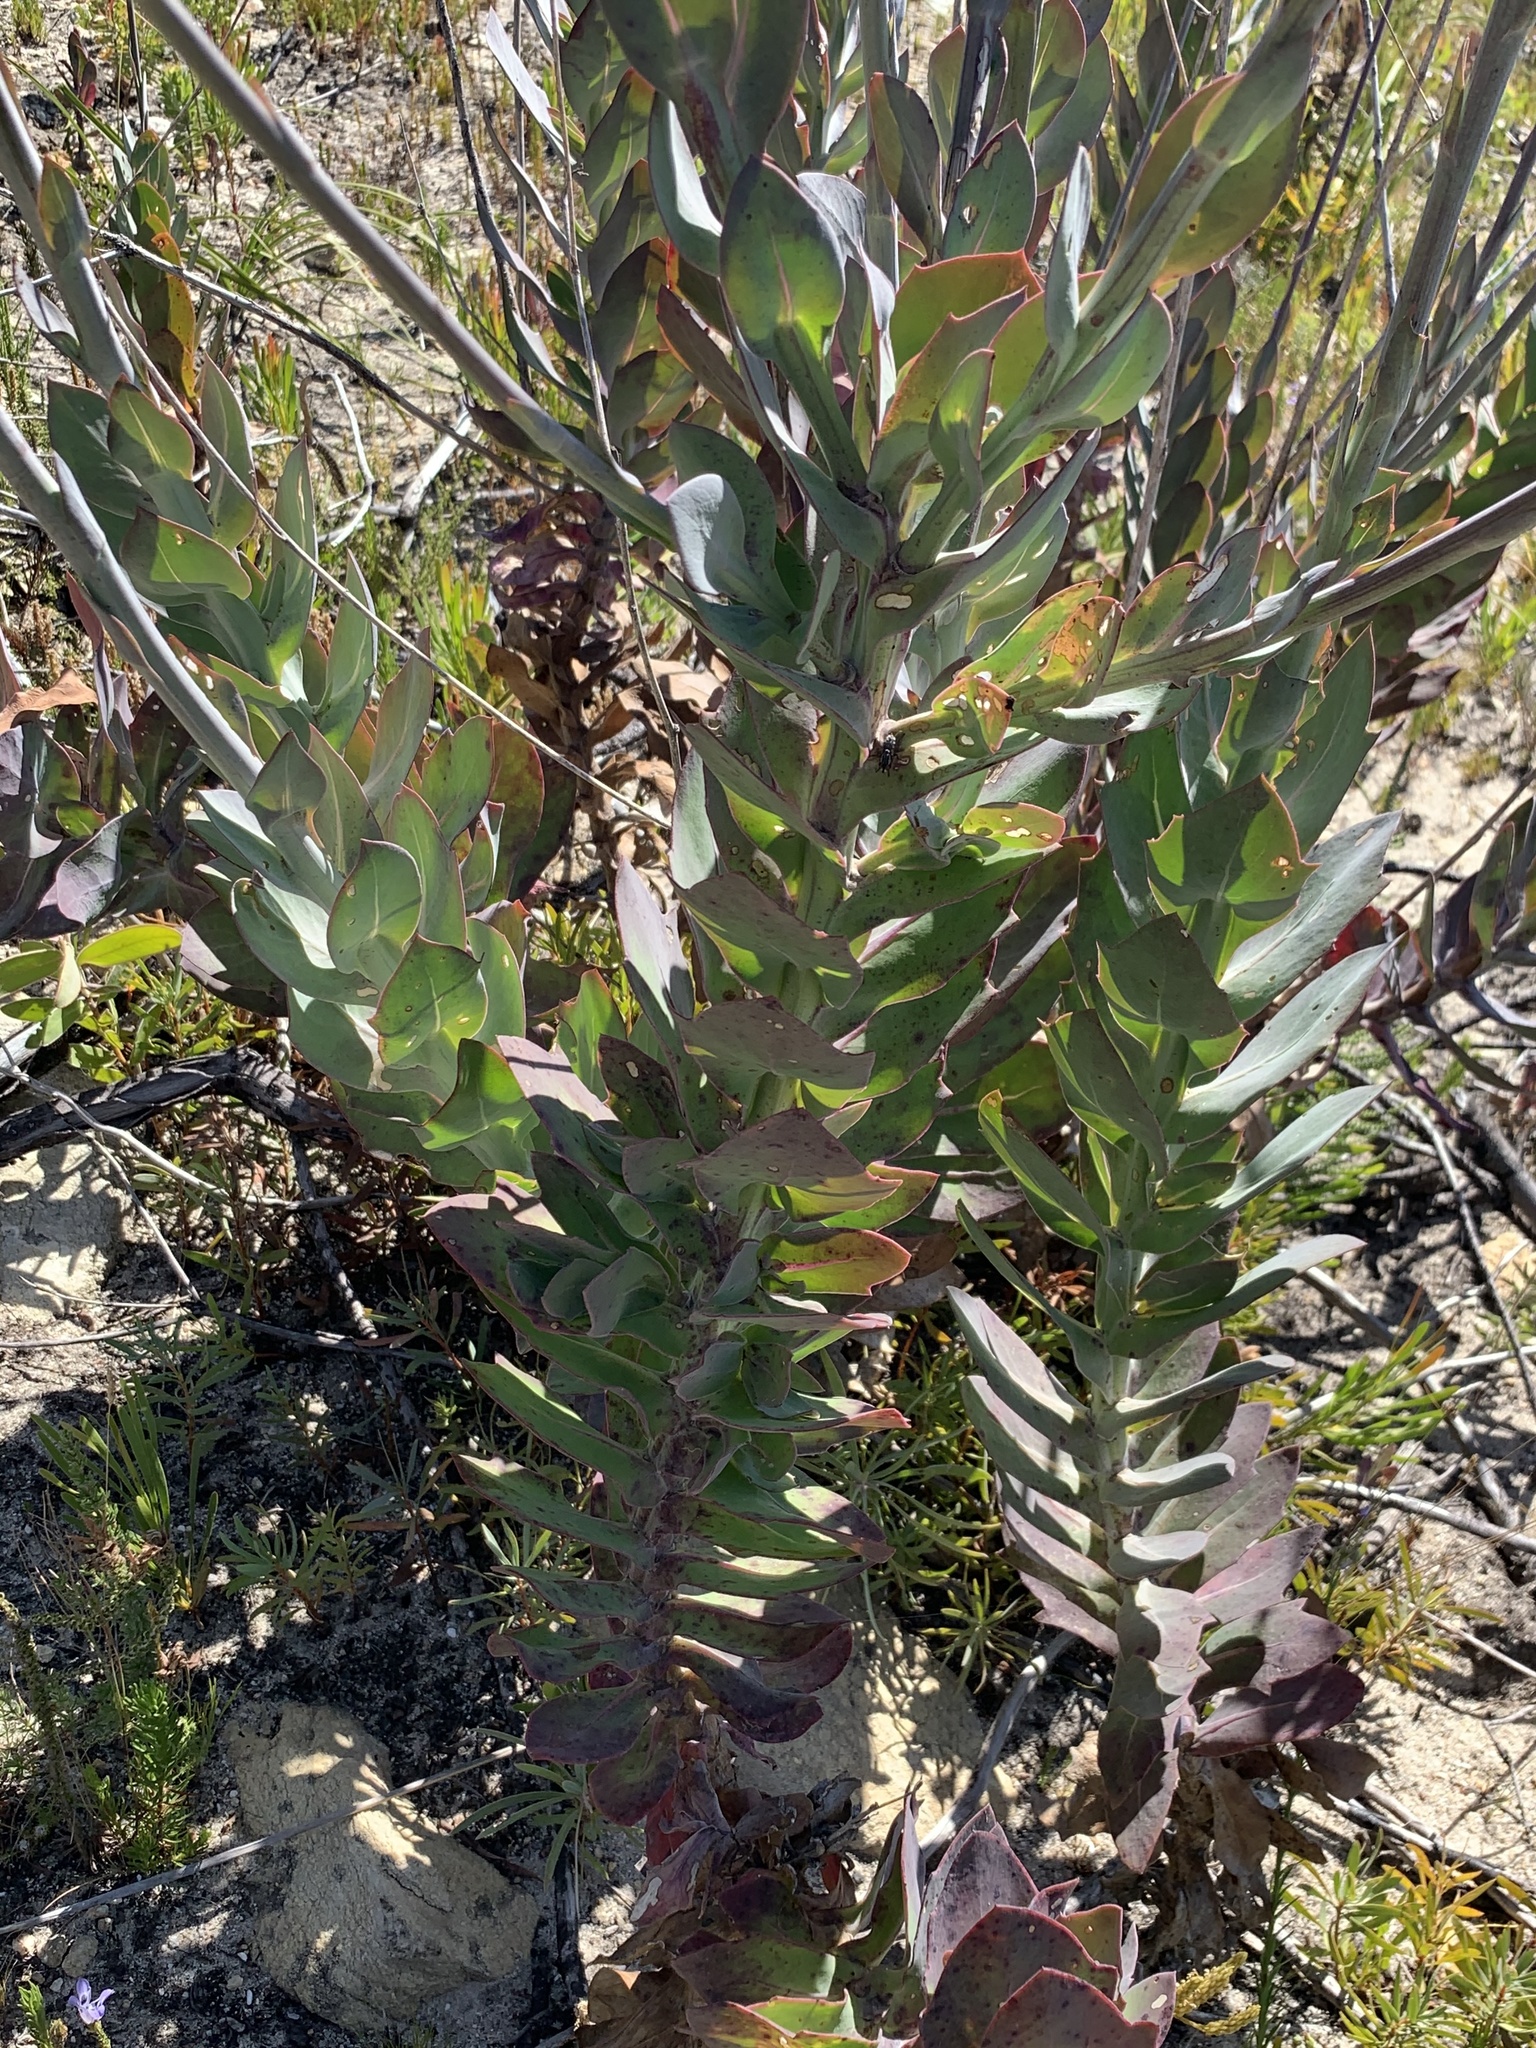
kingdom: Plantae
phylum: Tracheophyta
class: Magnoliopsida
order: Asterales
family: Asteraceae
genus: Othonna
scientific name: Othonna quinquedentata
